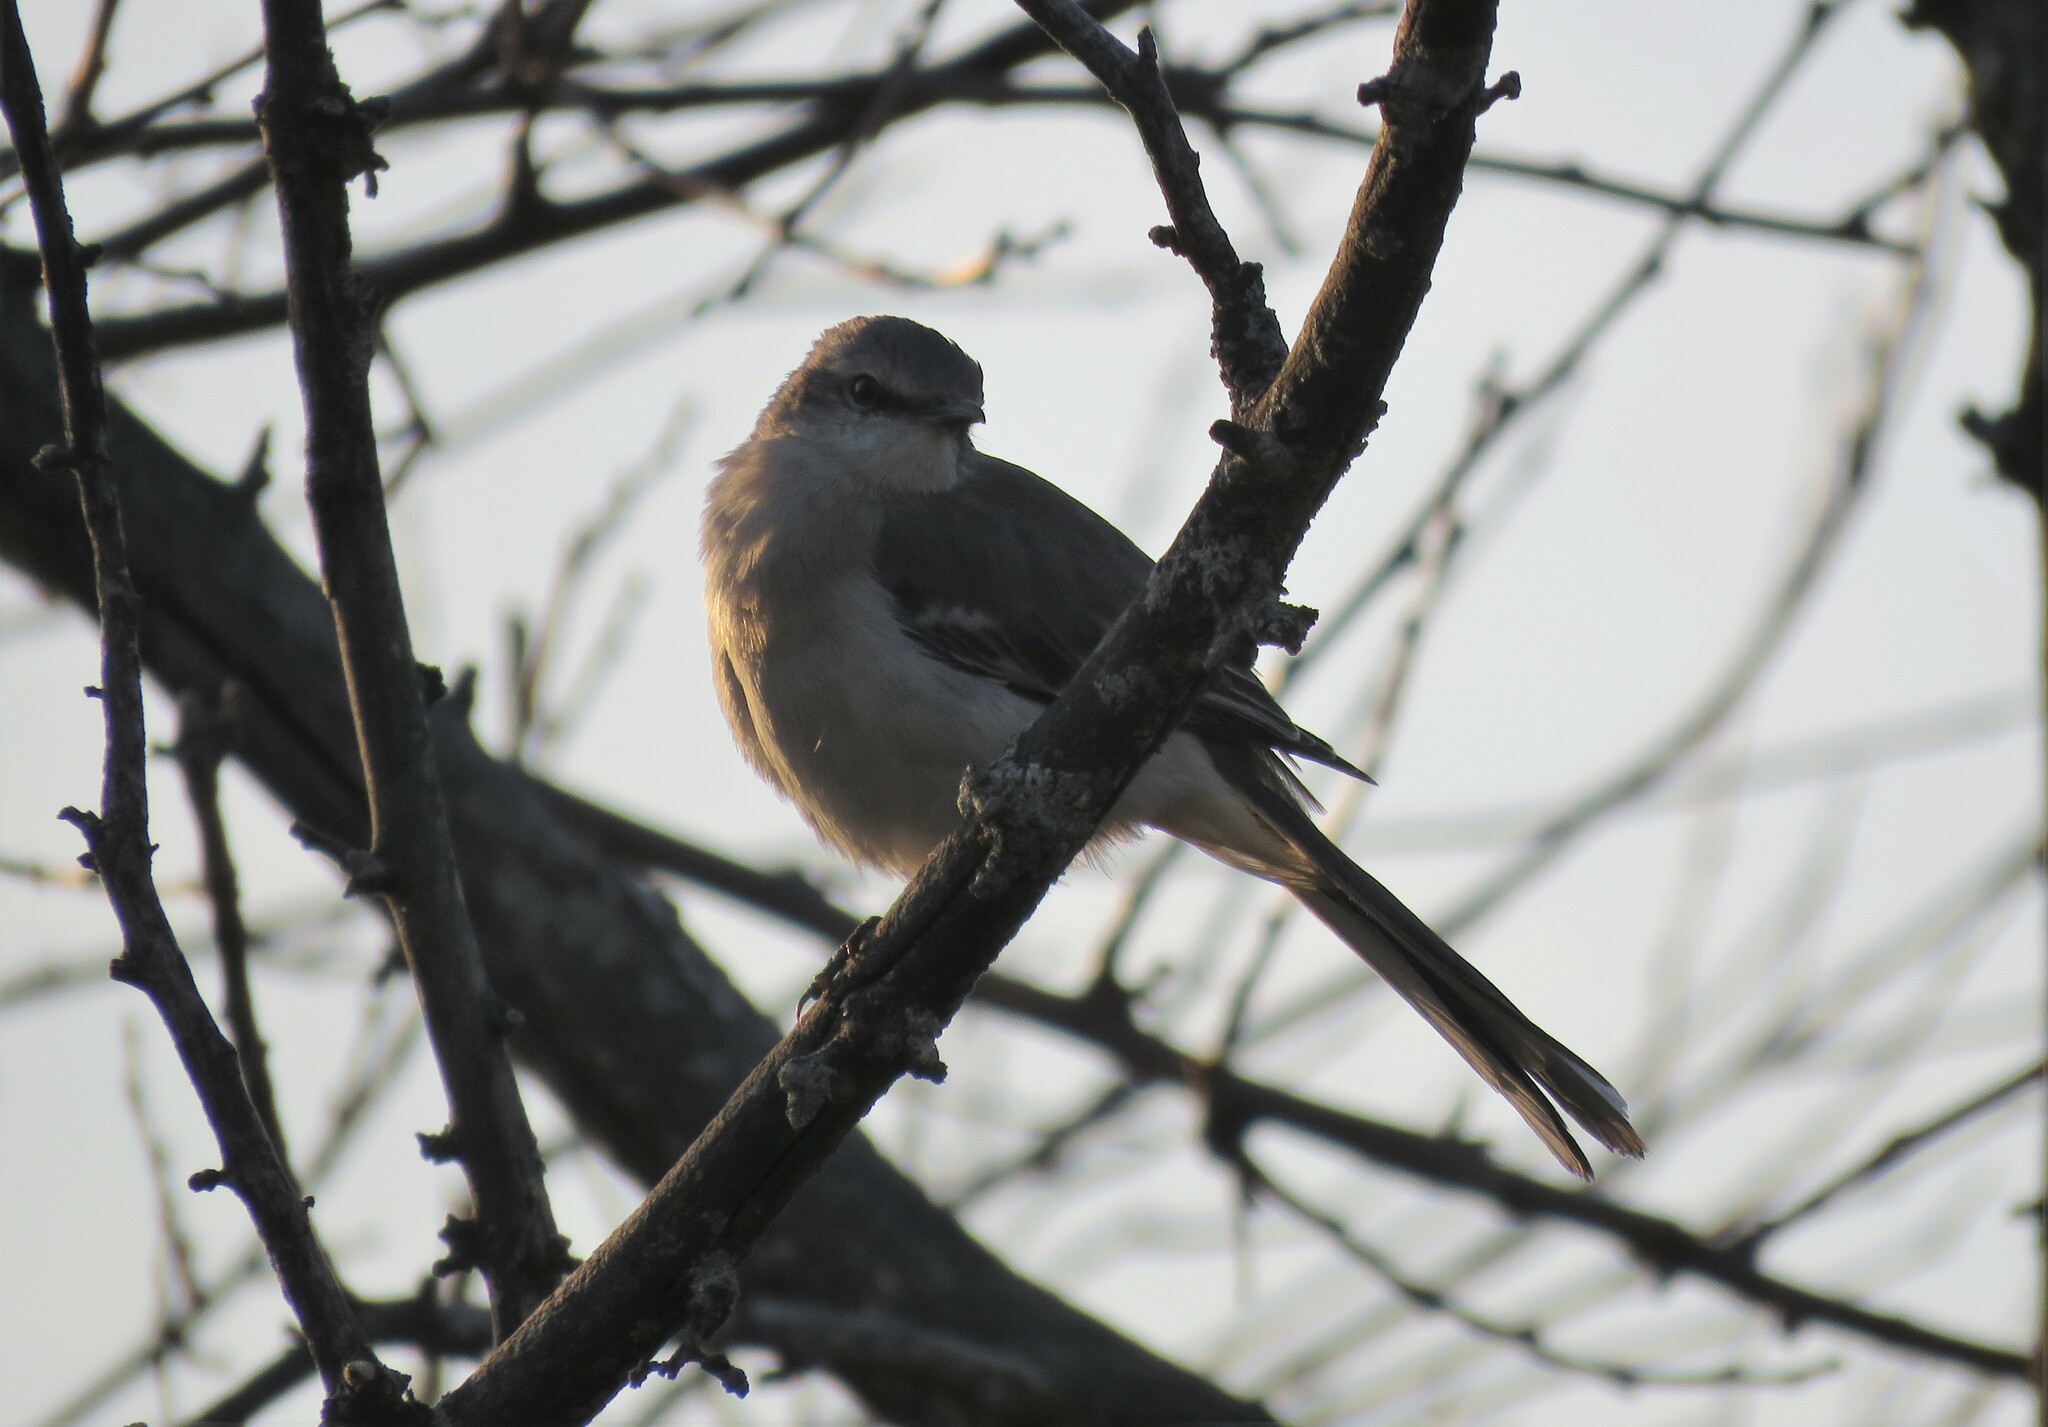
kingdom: Animalia
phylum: Chordata
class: Aves
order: Passeriformes
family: Mimidae
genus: Mimus
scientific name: Mimus polyglottos
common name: Northern mockingbird
